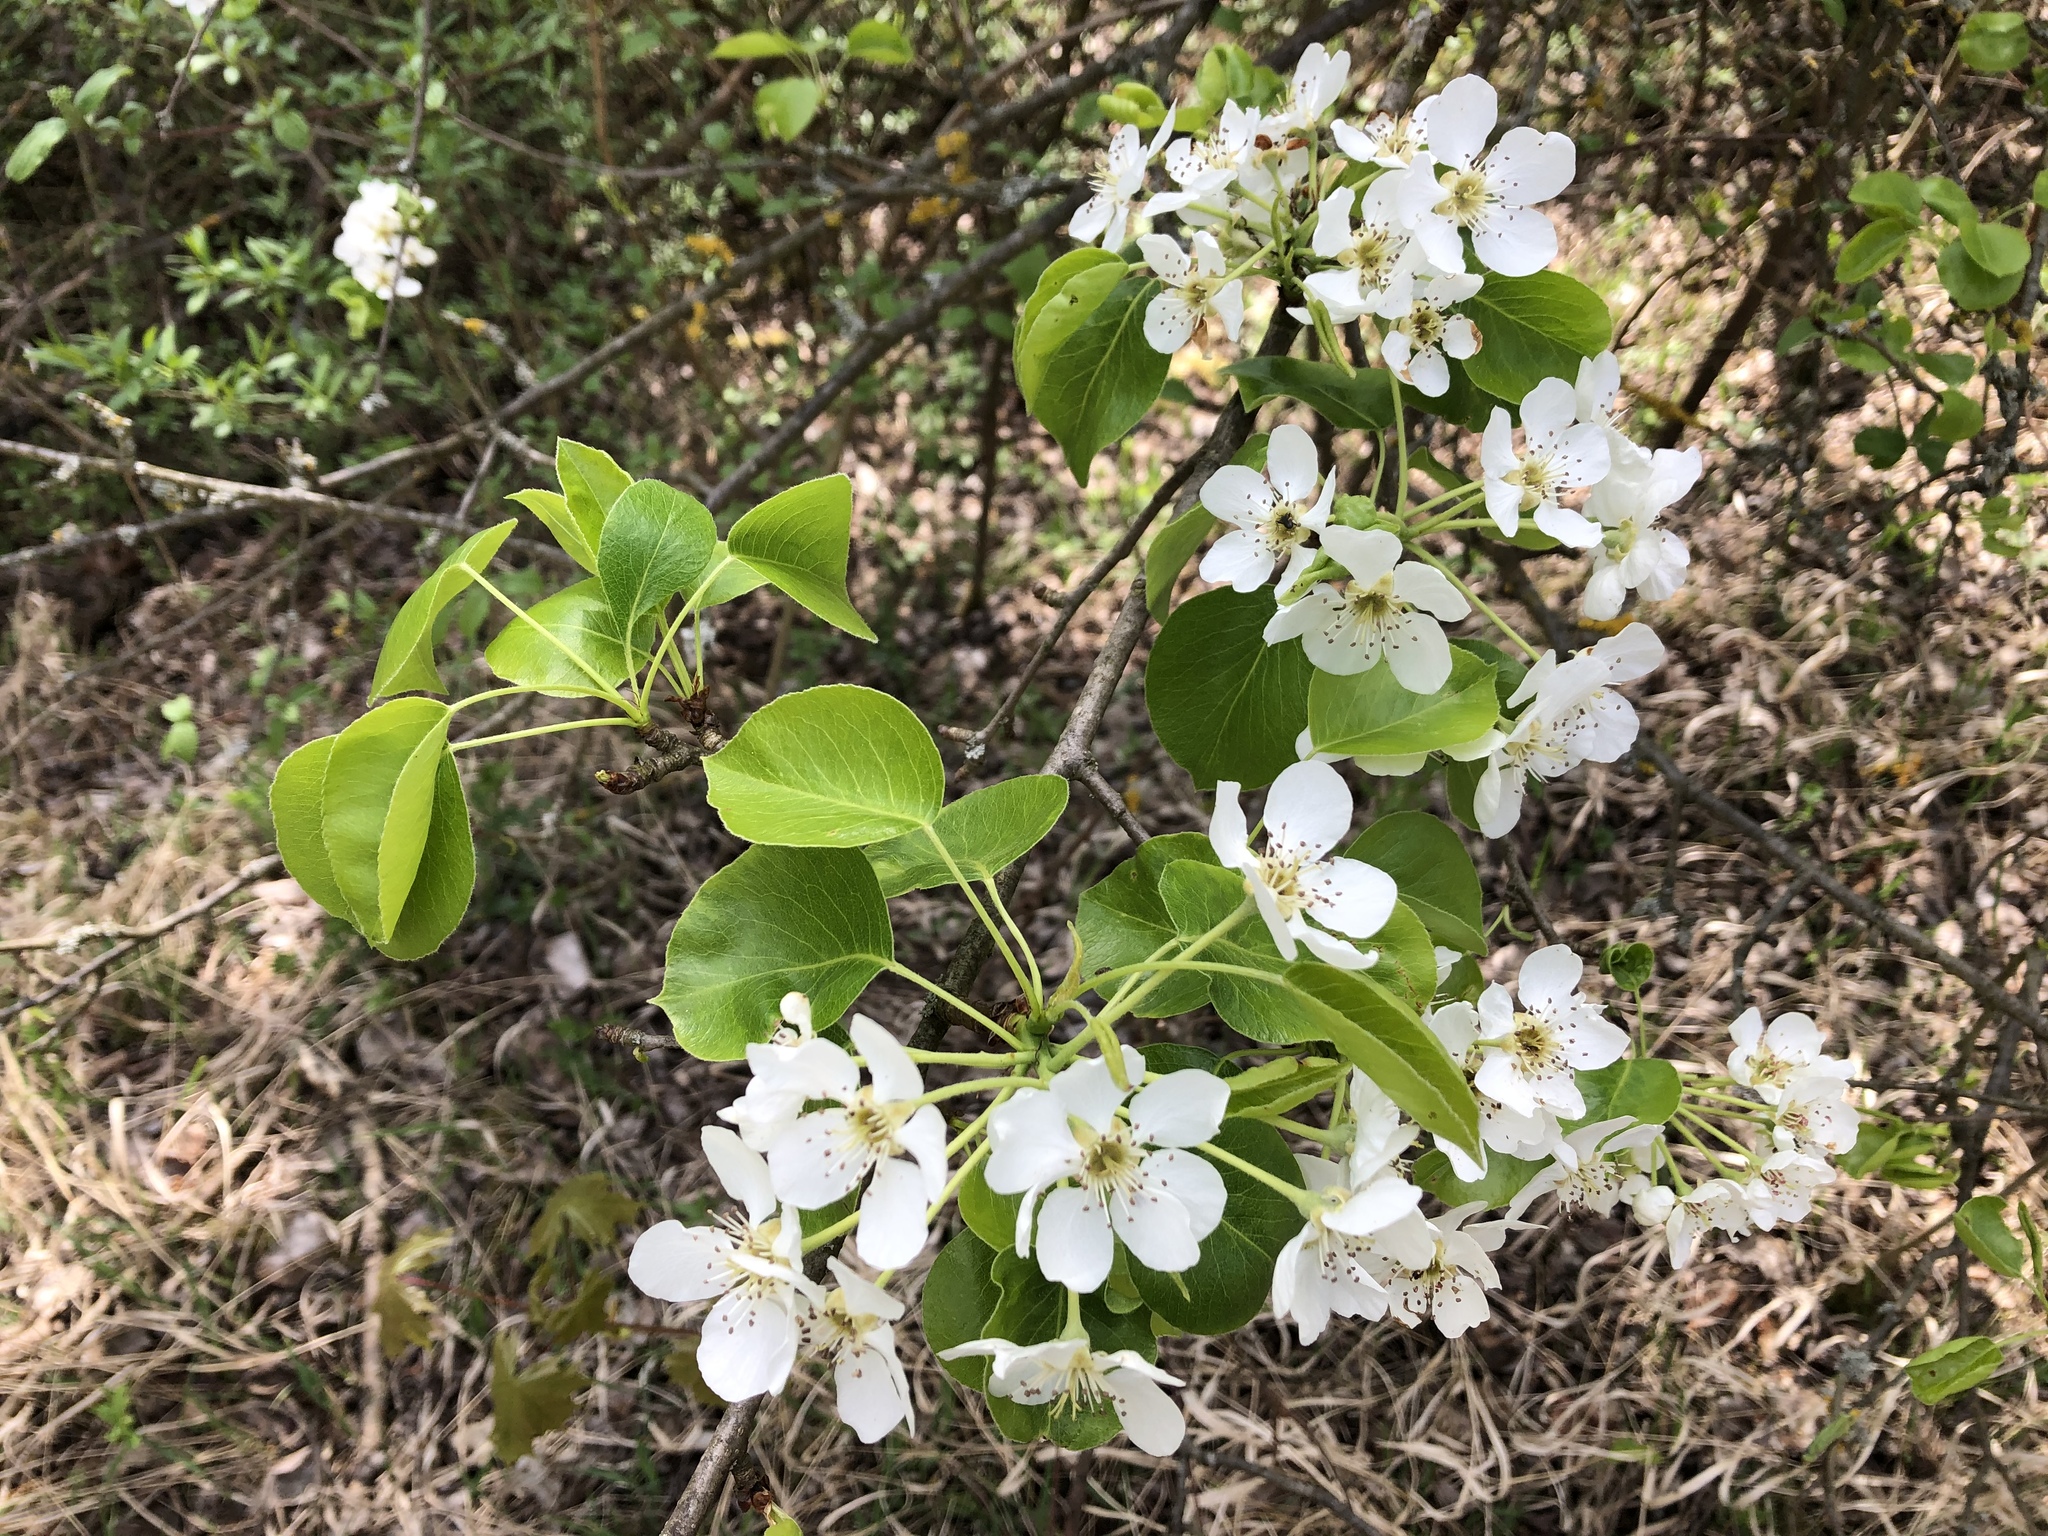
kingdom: Plantae
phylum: Tracheophyta
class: Magnoliopsida
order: Rosales
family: Rosaceae
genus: Pyrus
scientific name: Pyrus communis
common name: Pear
